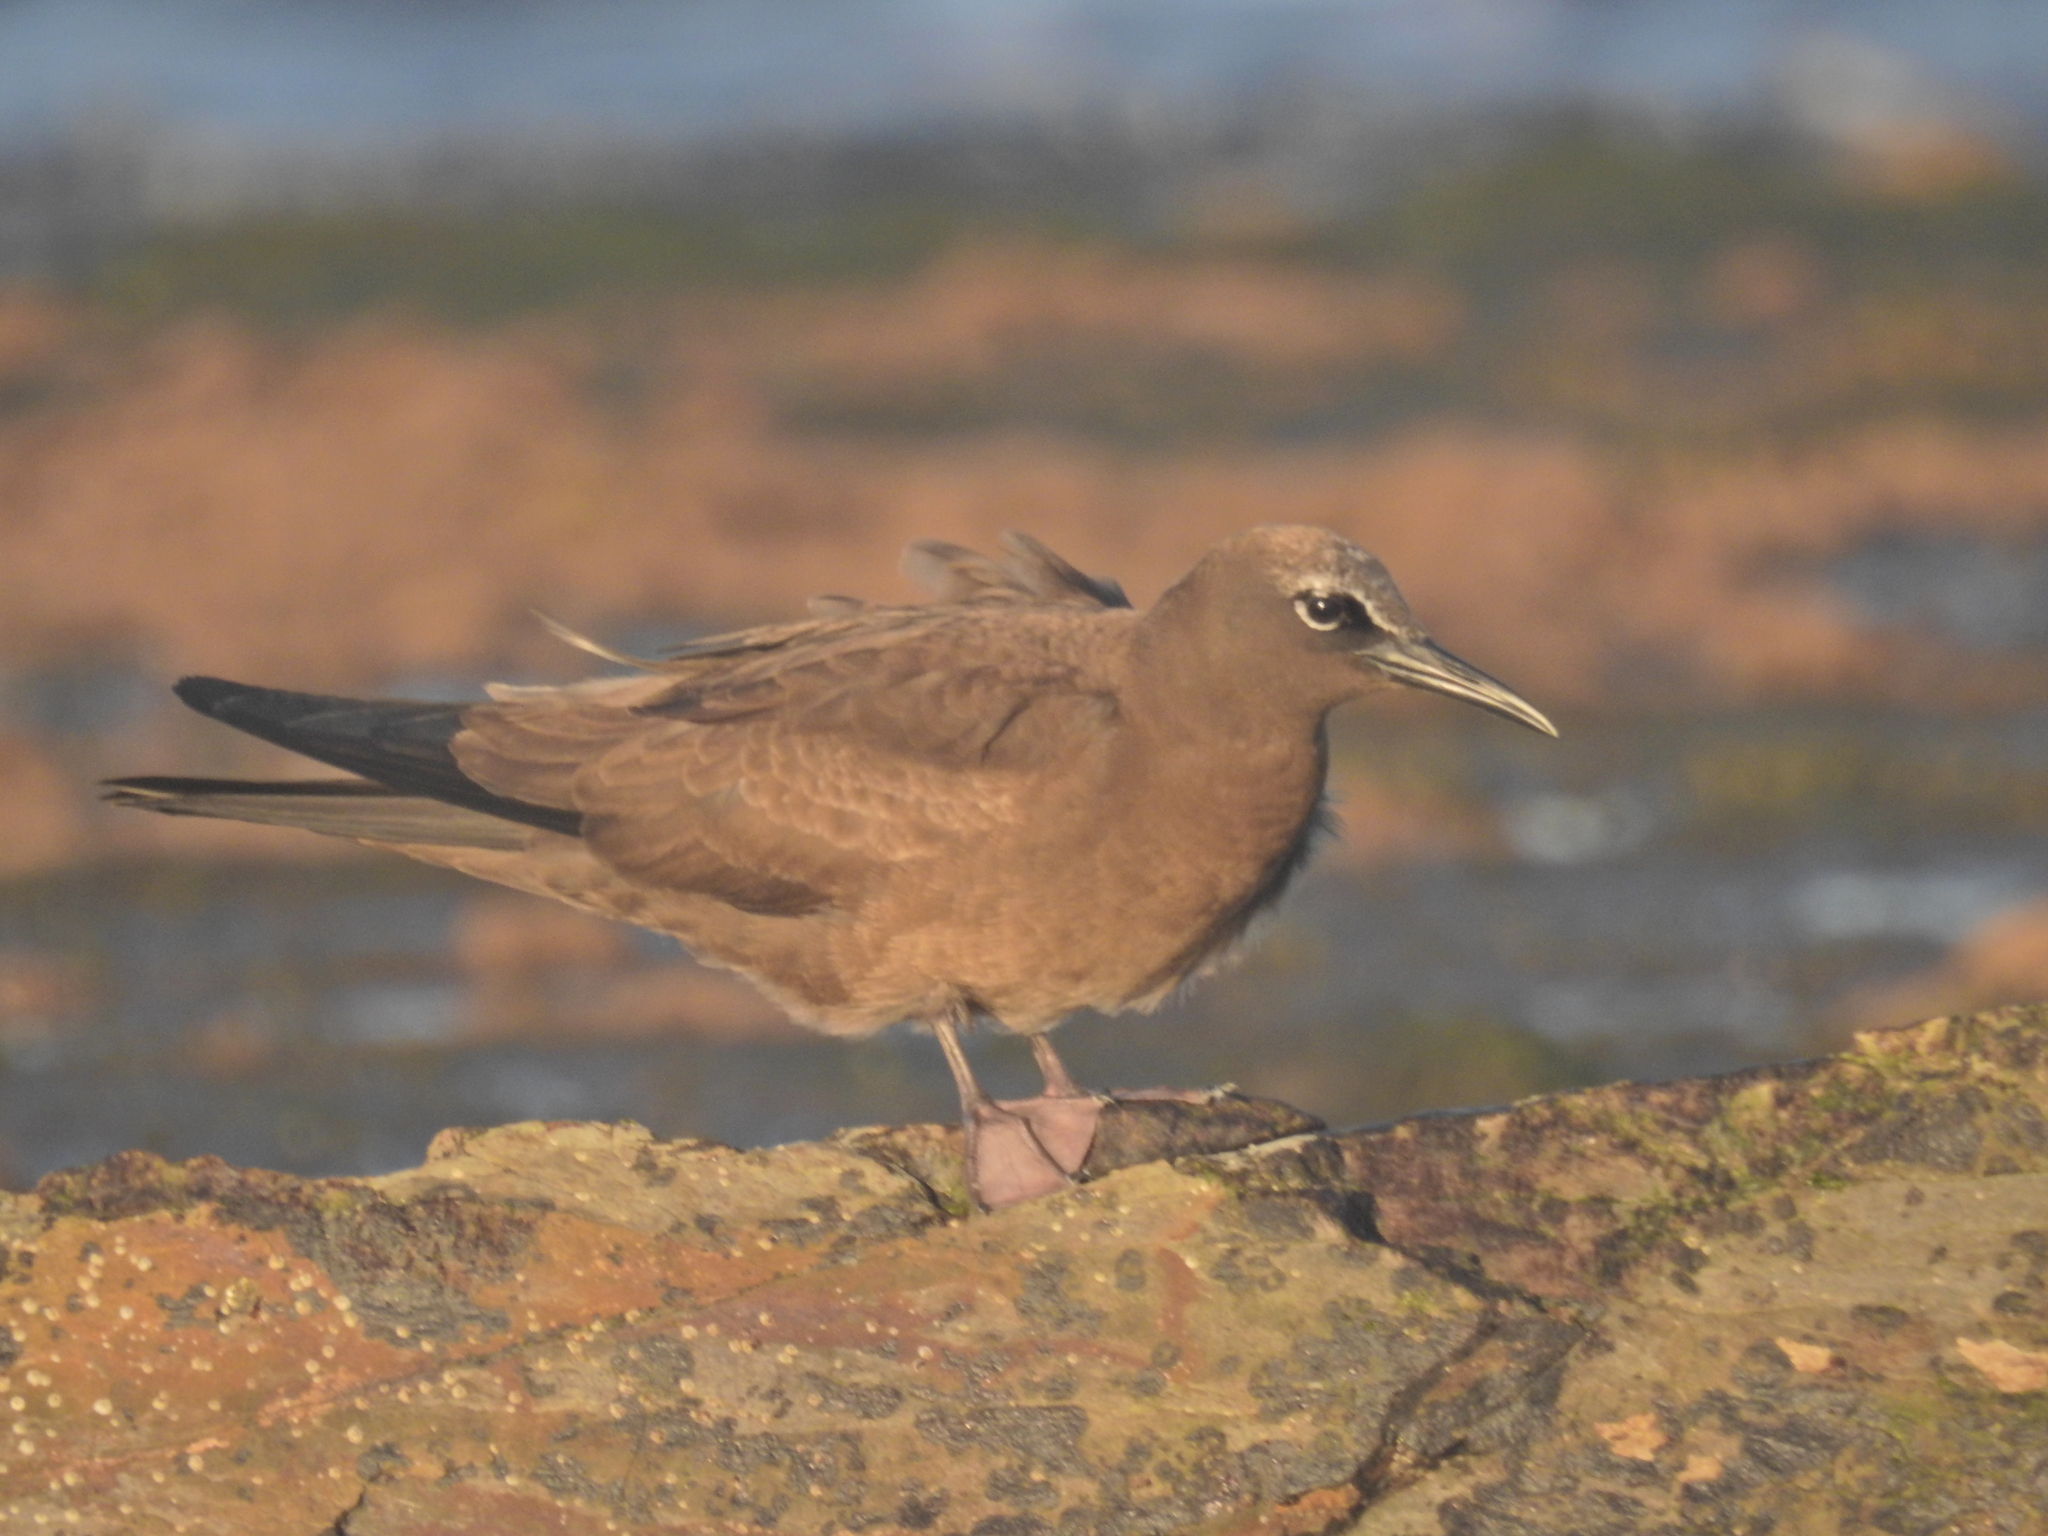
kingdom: Animalia
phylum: Chordata
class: Aves
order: Charadriiformes
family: Laridae
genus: Anous
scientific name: Anous stolidus
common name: Brown noddy
